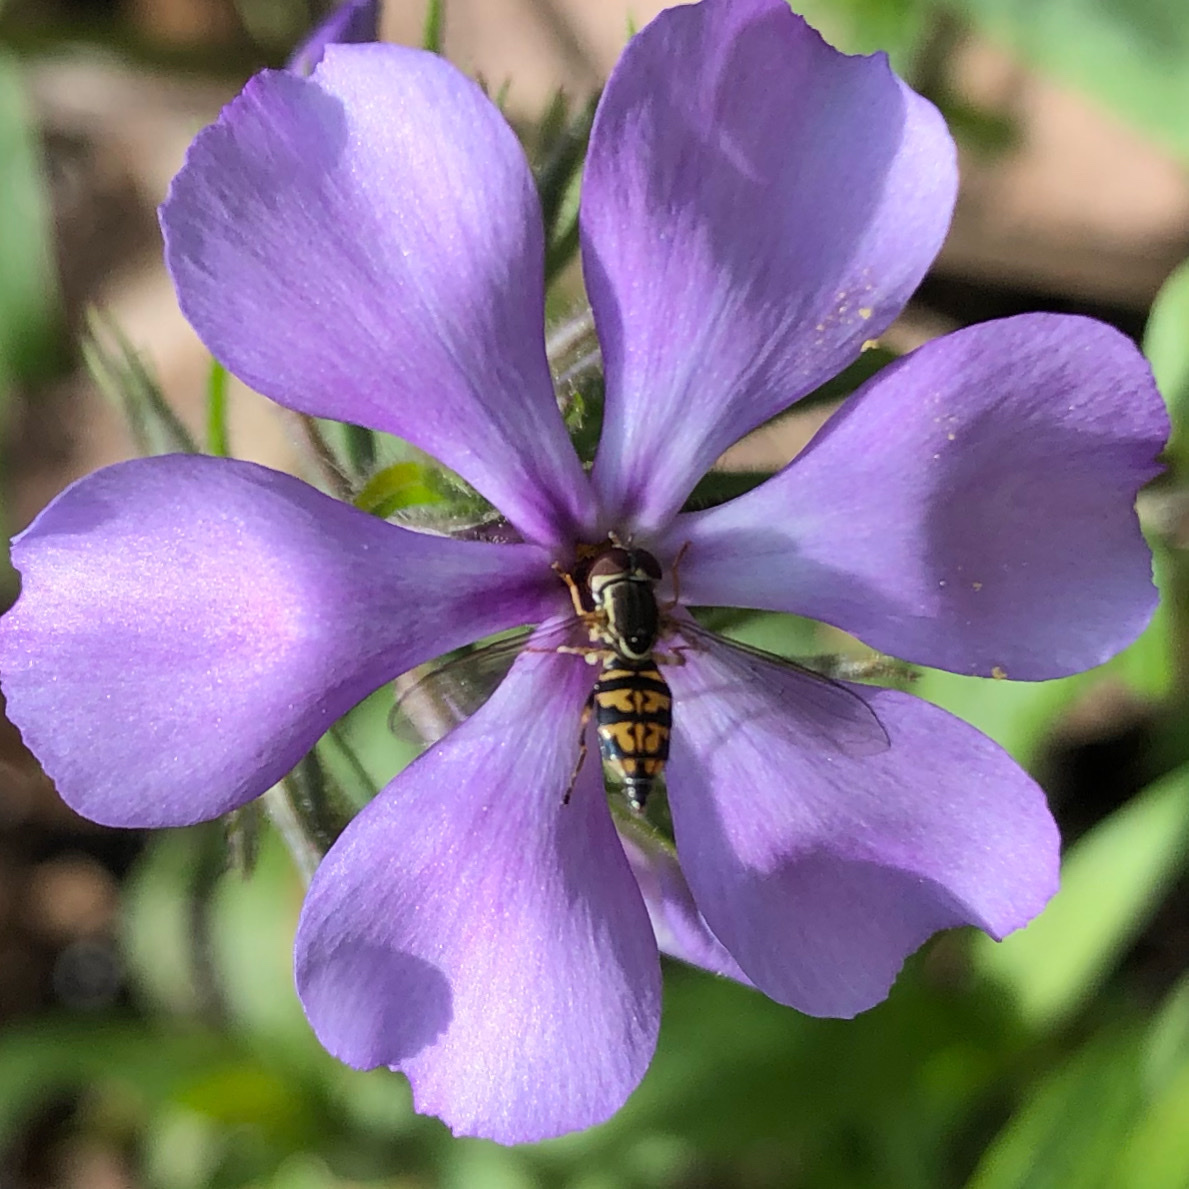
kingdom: Animalia
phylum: Arthropoda
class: Insecta
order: Diptera
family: Syrphidae
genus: Toxomerus
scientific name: Toxomerus geminatus
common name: Eastern calligrapher
